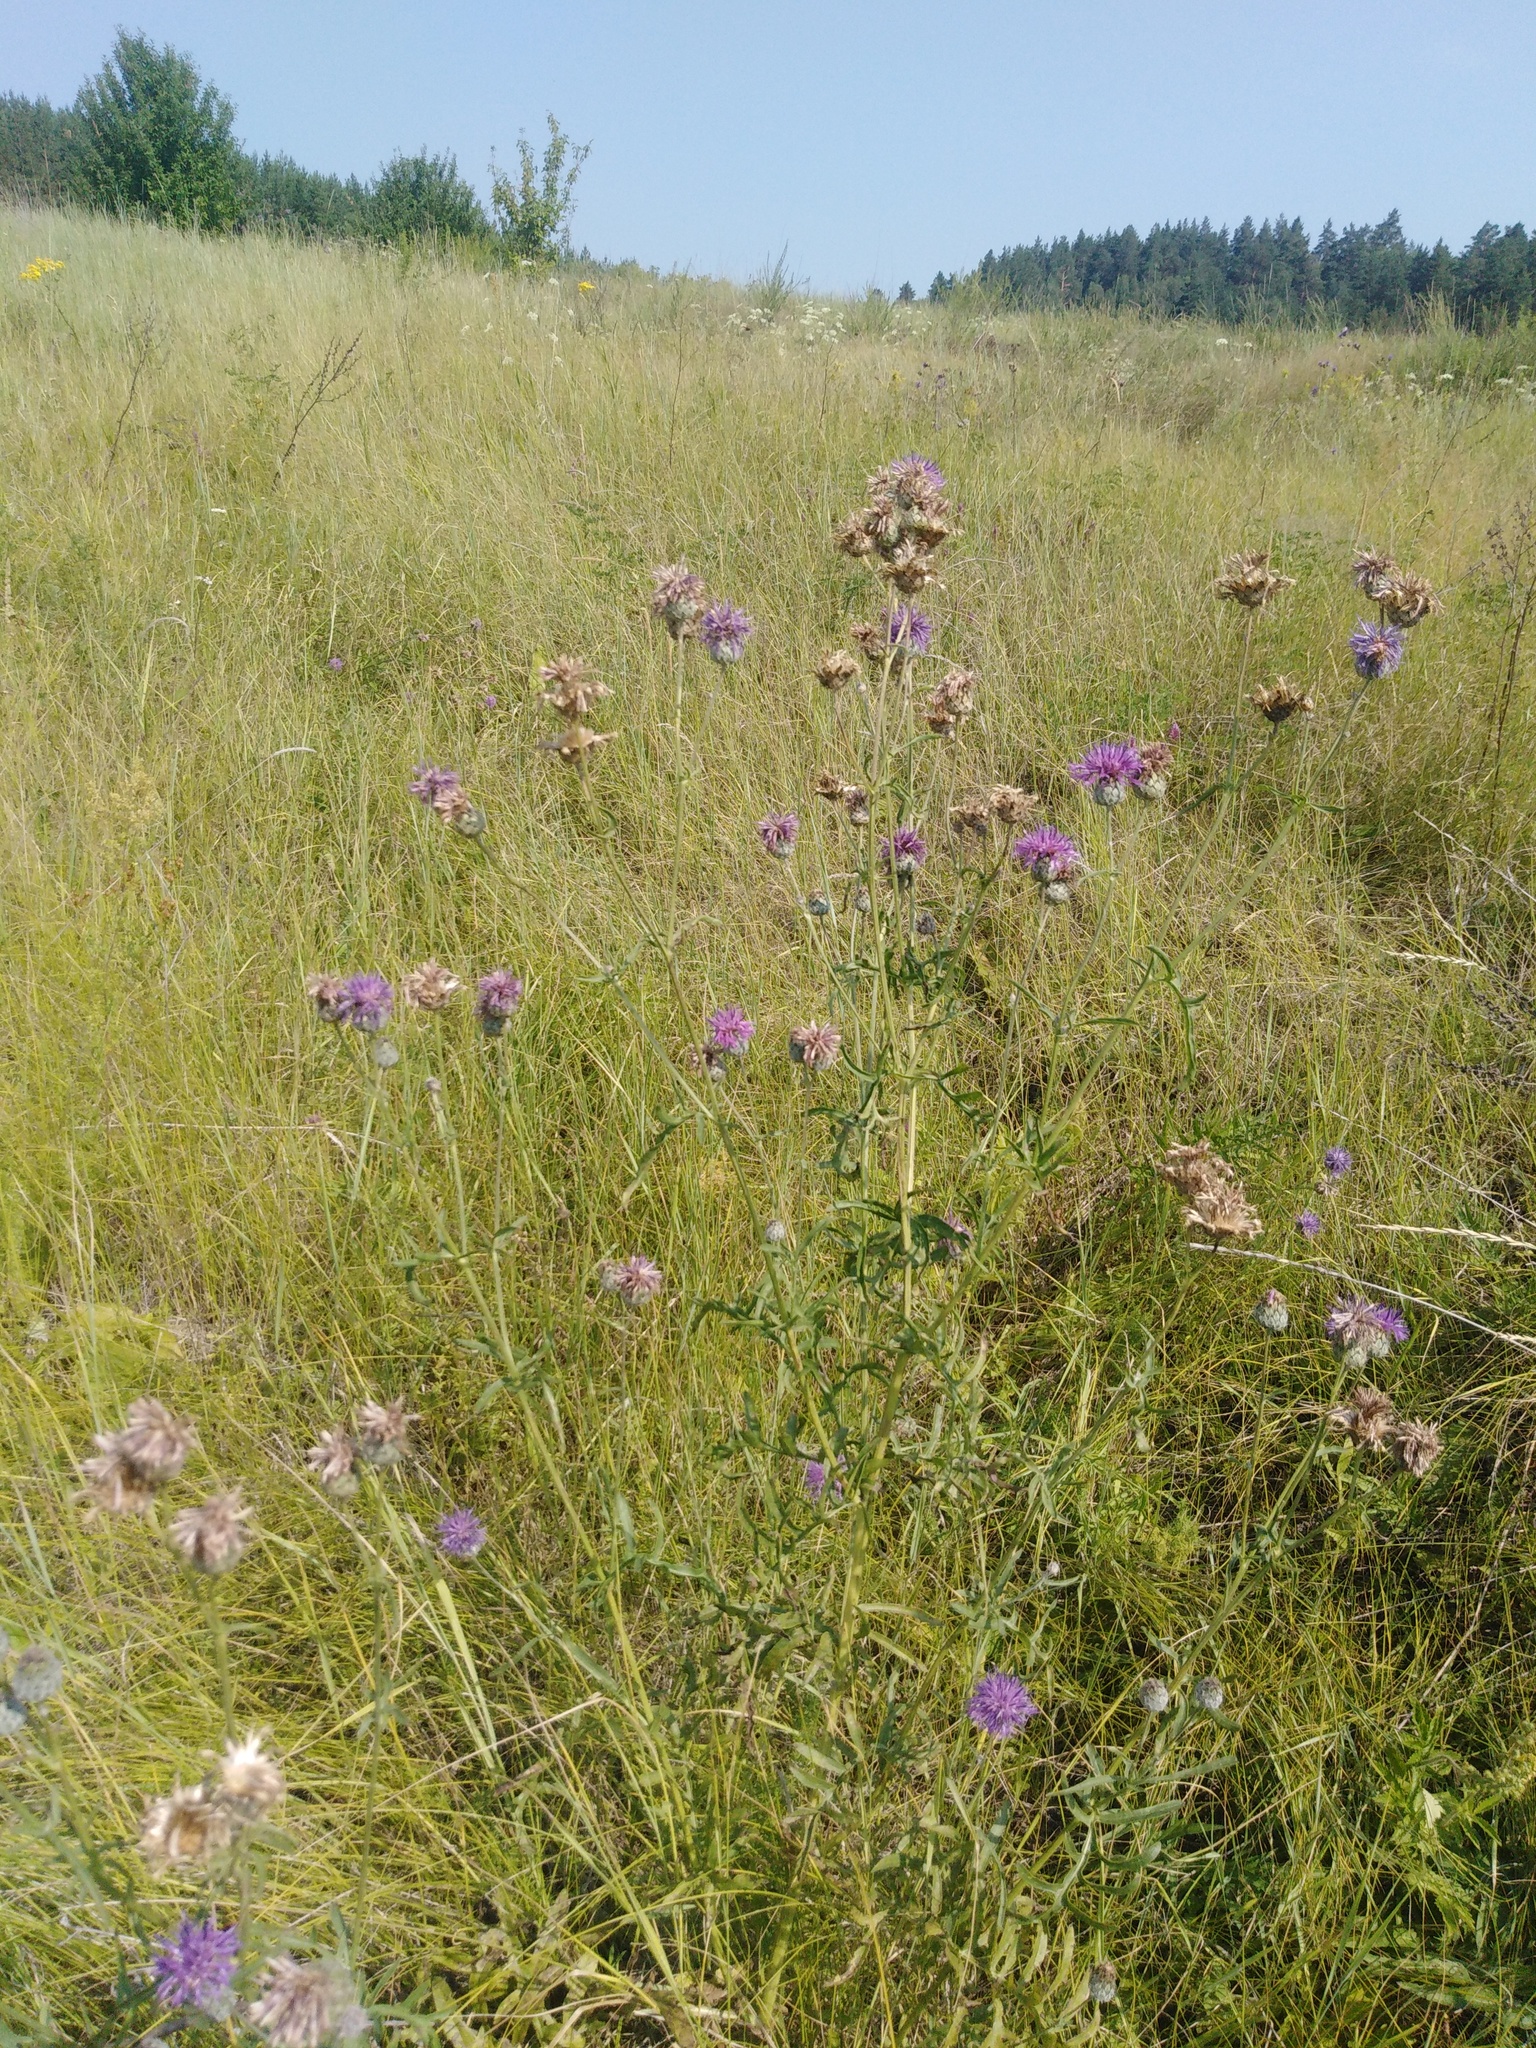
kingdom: Plantae
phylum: Tracheophyta
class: Magnoliopsida
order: Asterales
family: Asteraceae
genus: Centaurea
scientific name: Centaurea apiculata
